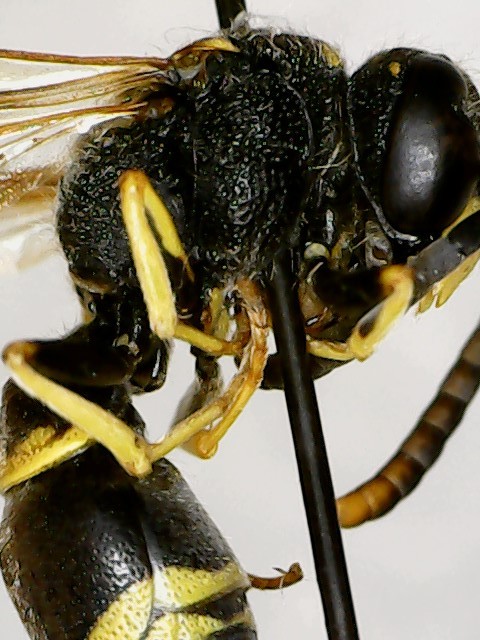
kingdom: Animalia
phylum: Arthropoda
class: Insecta
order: Hymenoptera
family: Vespidae
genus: Ancistrocerus
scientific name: Ancistrocerus adiabatus
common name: Bramble mason wasp
